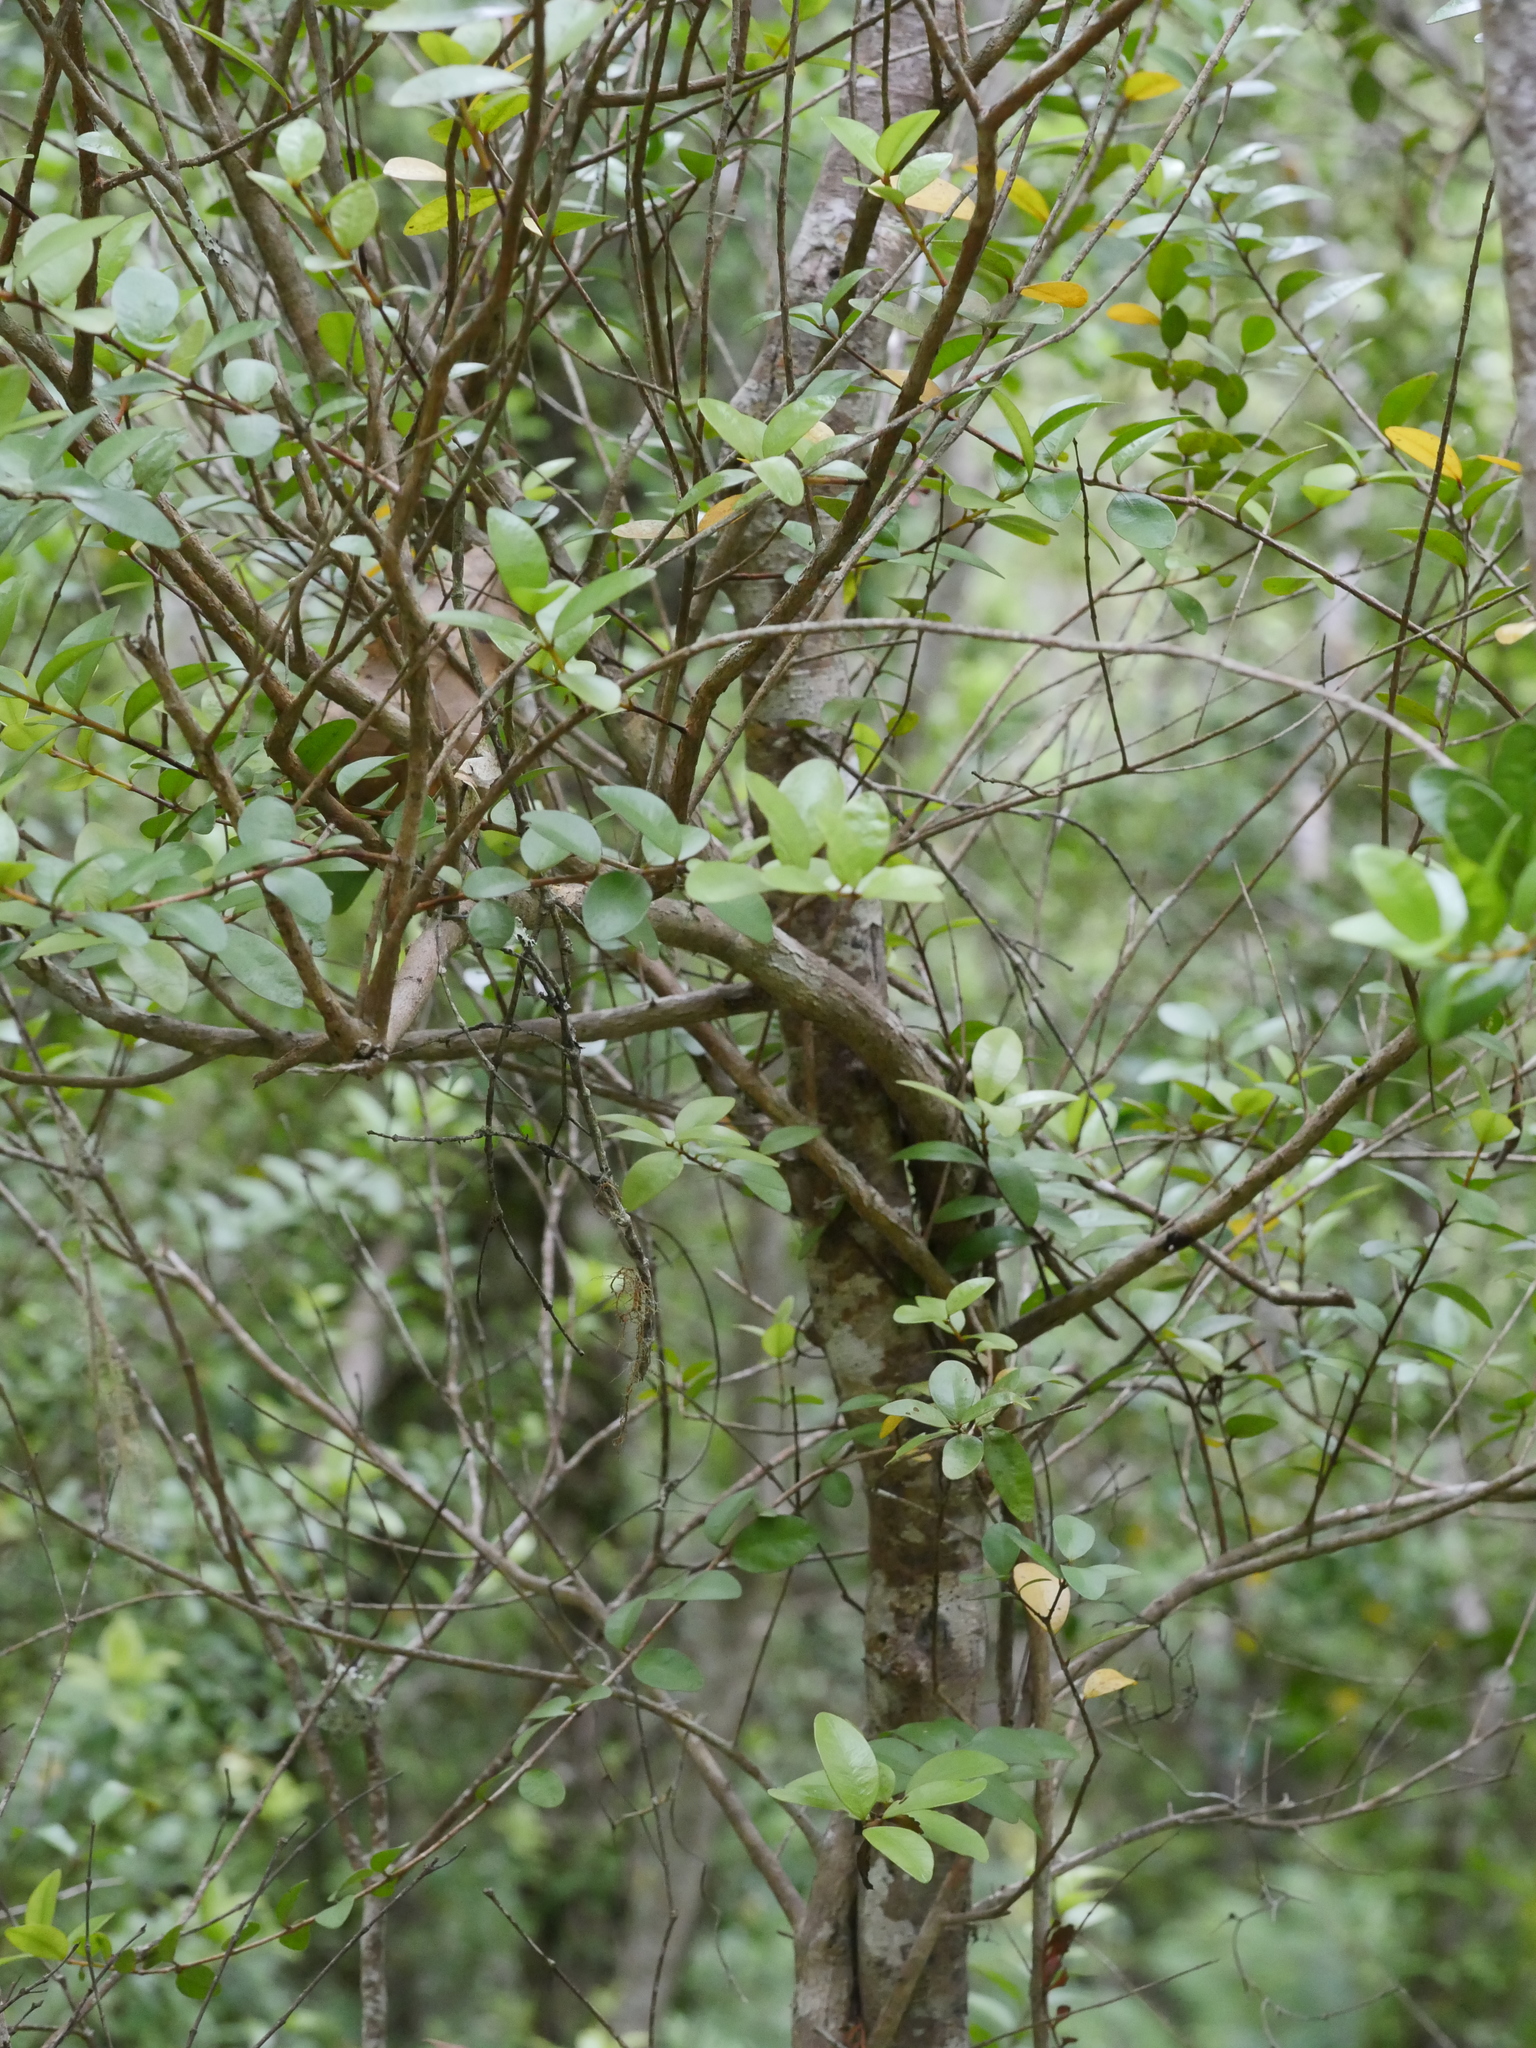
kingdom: Plantae
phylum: Tracheophyta
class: Magnoliopsida
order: Myrtales
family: Myrtaceae
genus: Metrosideros
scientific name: Metrosideros fulgens
